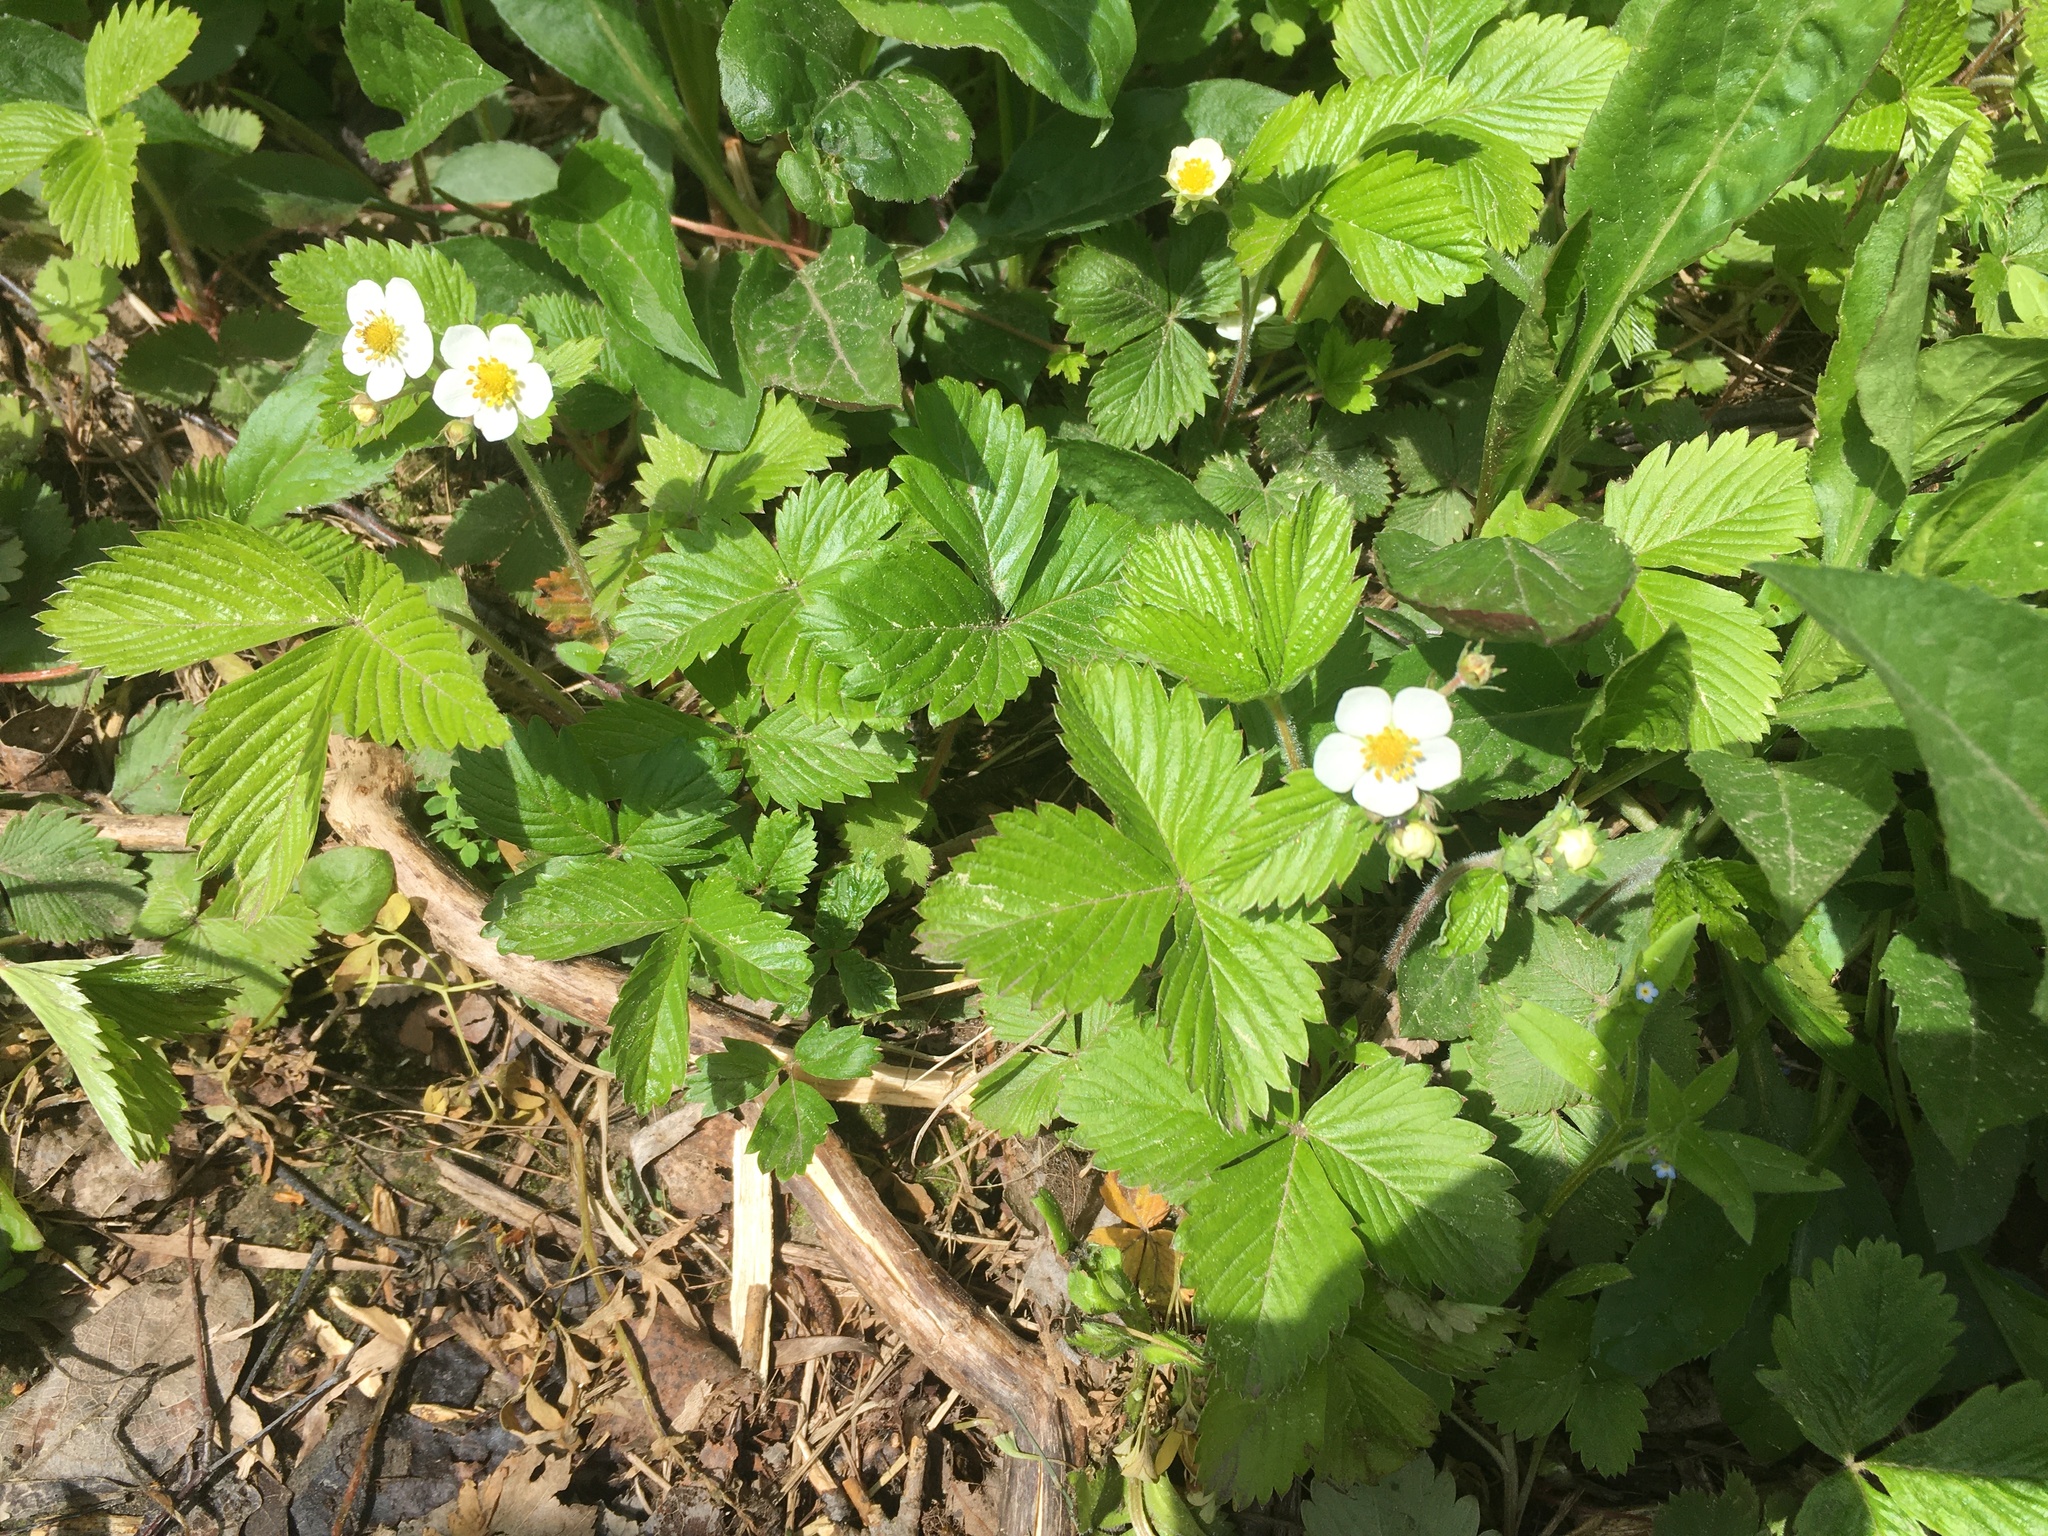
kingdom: Plantae
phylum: Tracheophyta
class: Magnoliopsida
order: Rosales
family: Rosaceae
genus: Fragaria
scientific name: Fragaria vesca
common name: Wild strawberry
